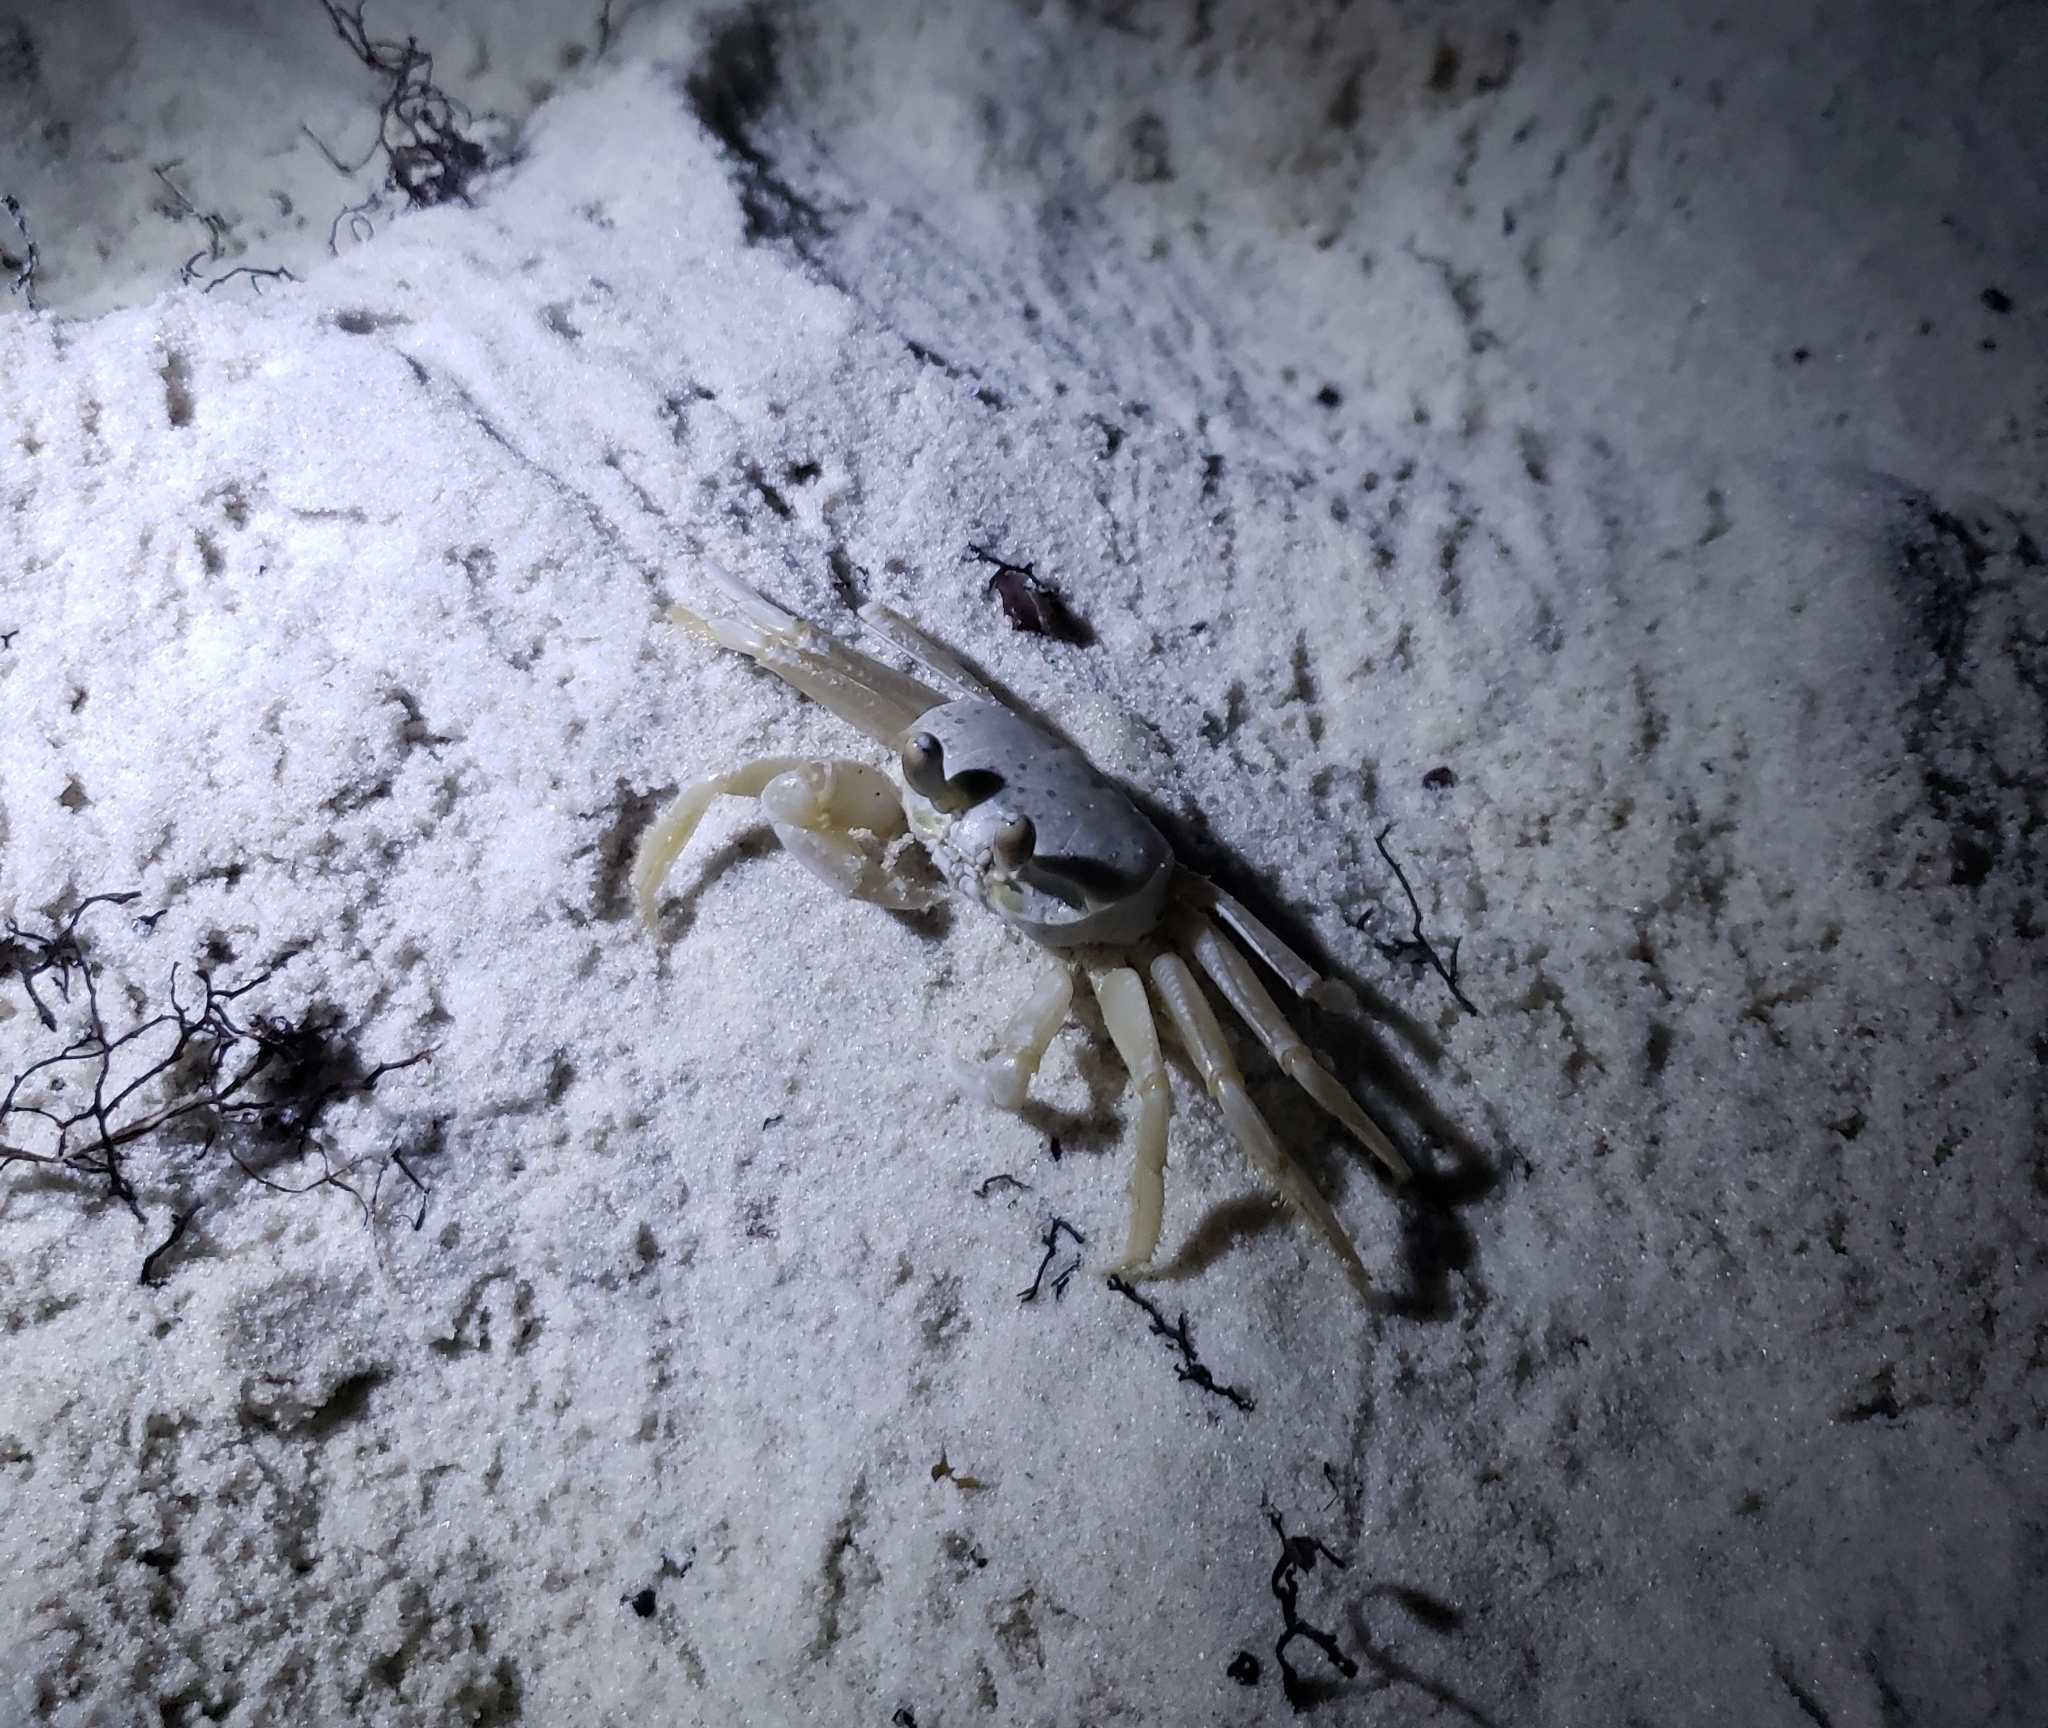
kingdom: Animalia
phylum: Arthropoda
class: Malacostraca
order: Decapoda
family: Ocypodidae
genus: Ocypode
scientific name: Ocypode quadrata
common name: Ghost crab
